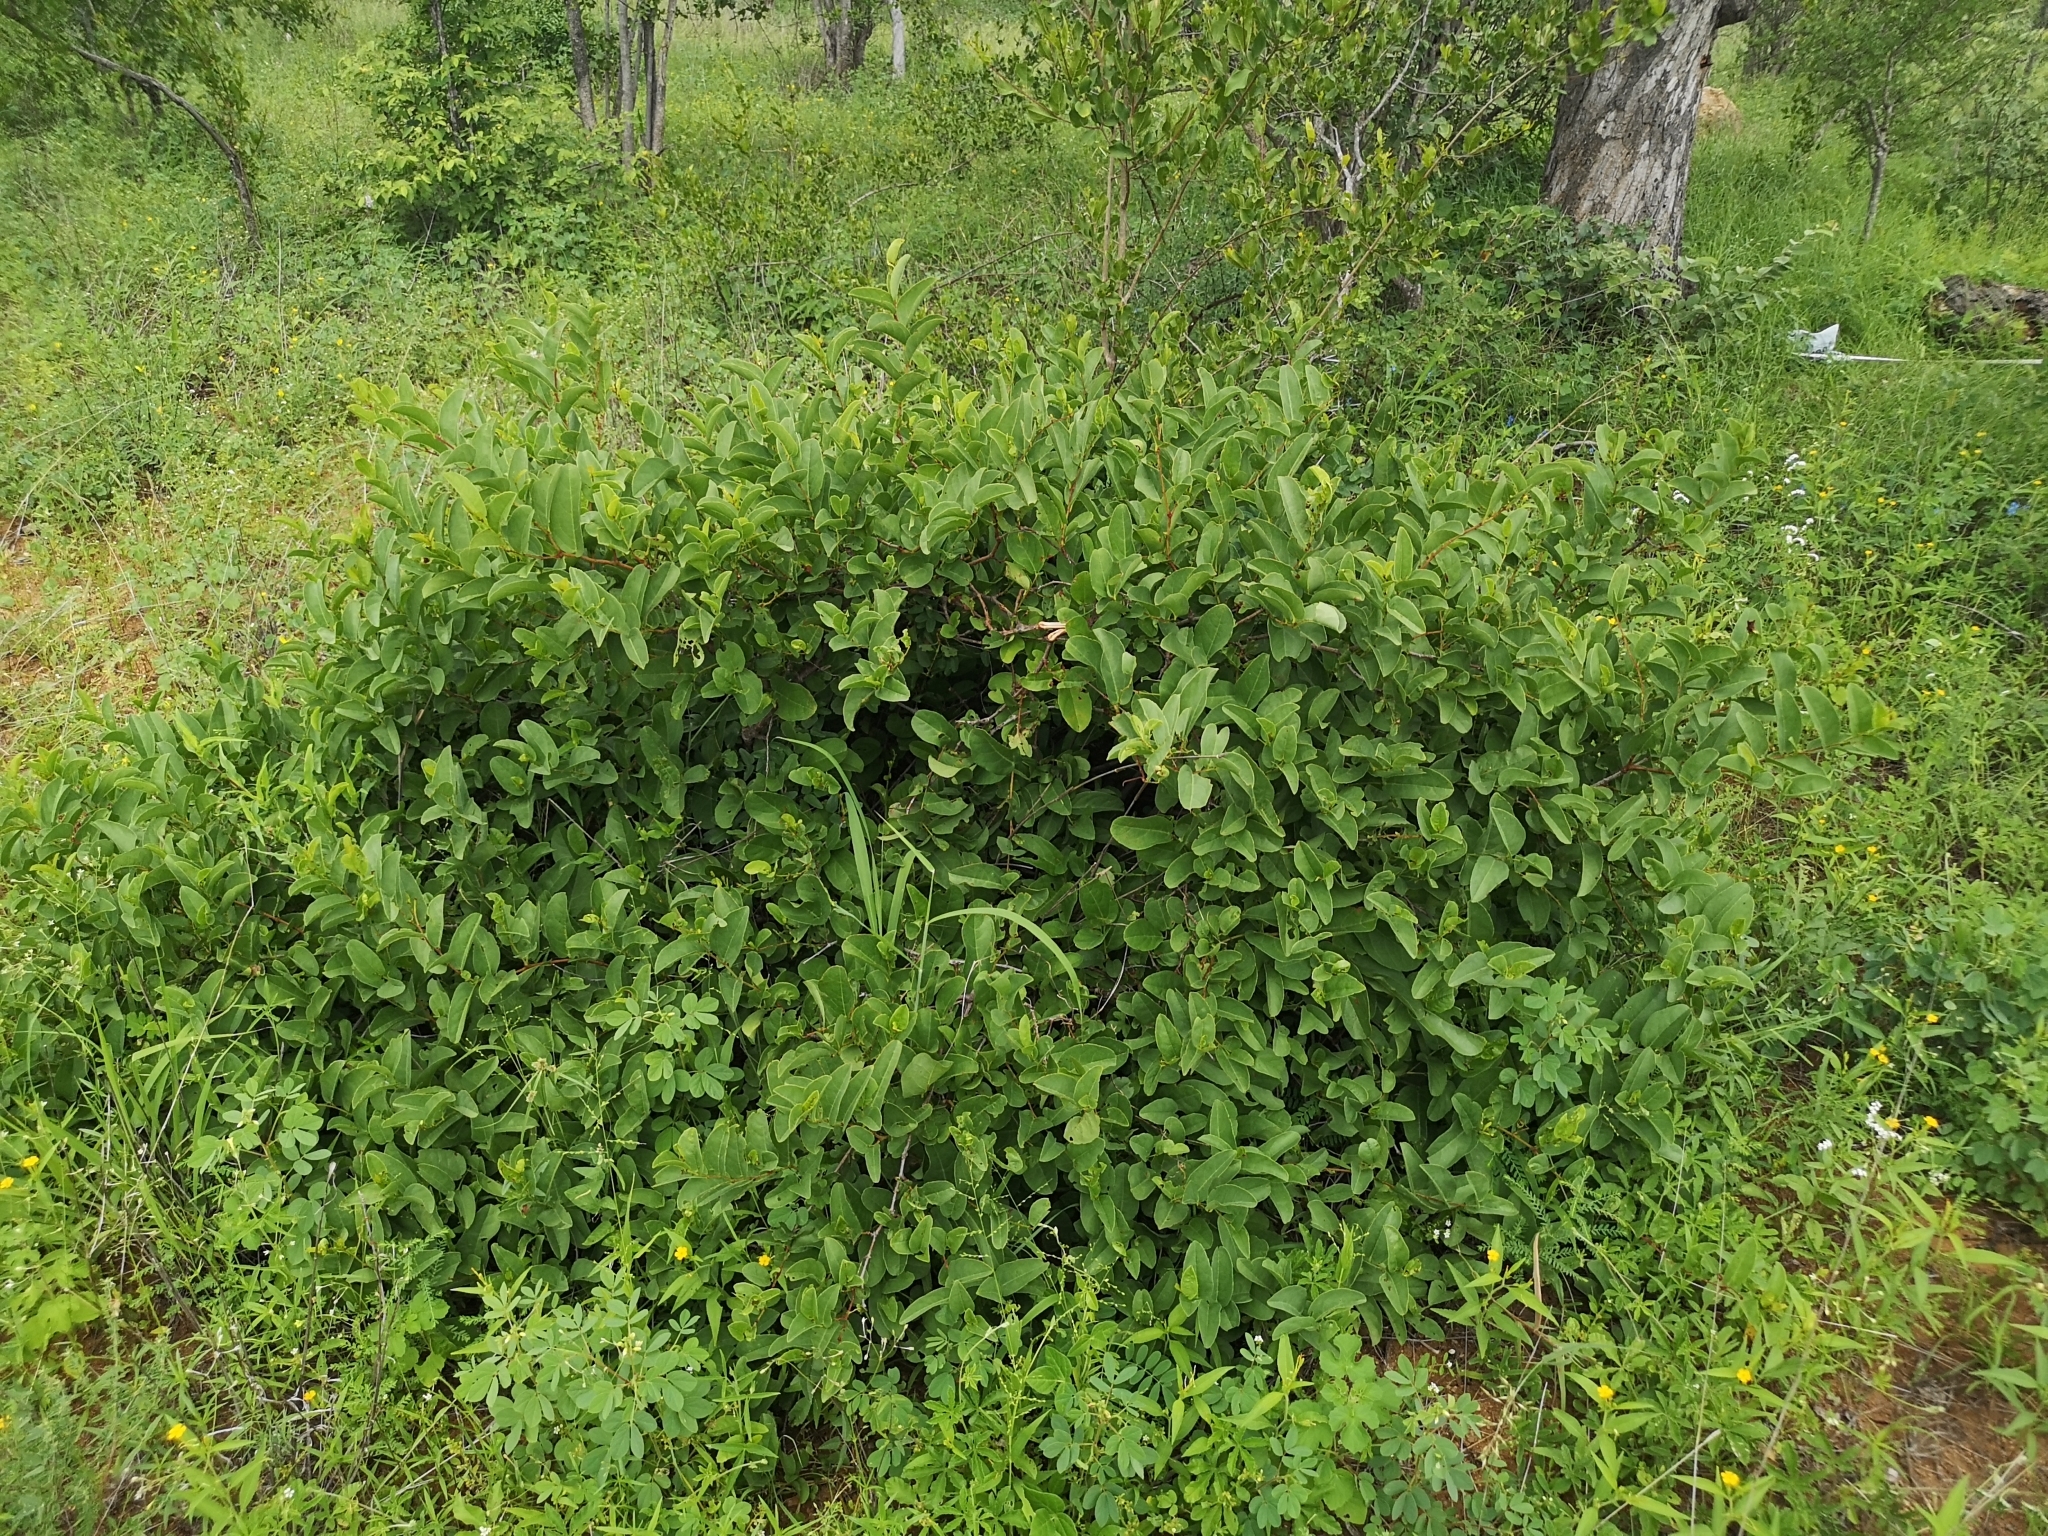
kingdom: Plantae
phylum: Tracheophyta
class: Magnoliopsida
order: Vitales
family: Vitaceae
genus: Cissus
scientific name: Cissus cornifolia
